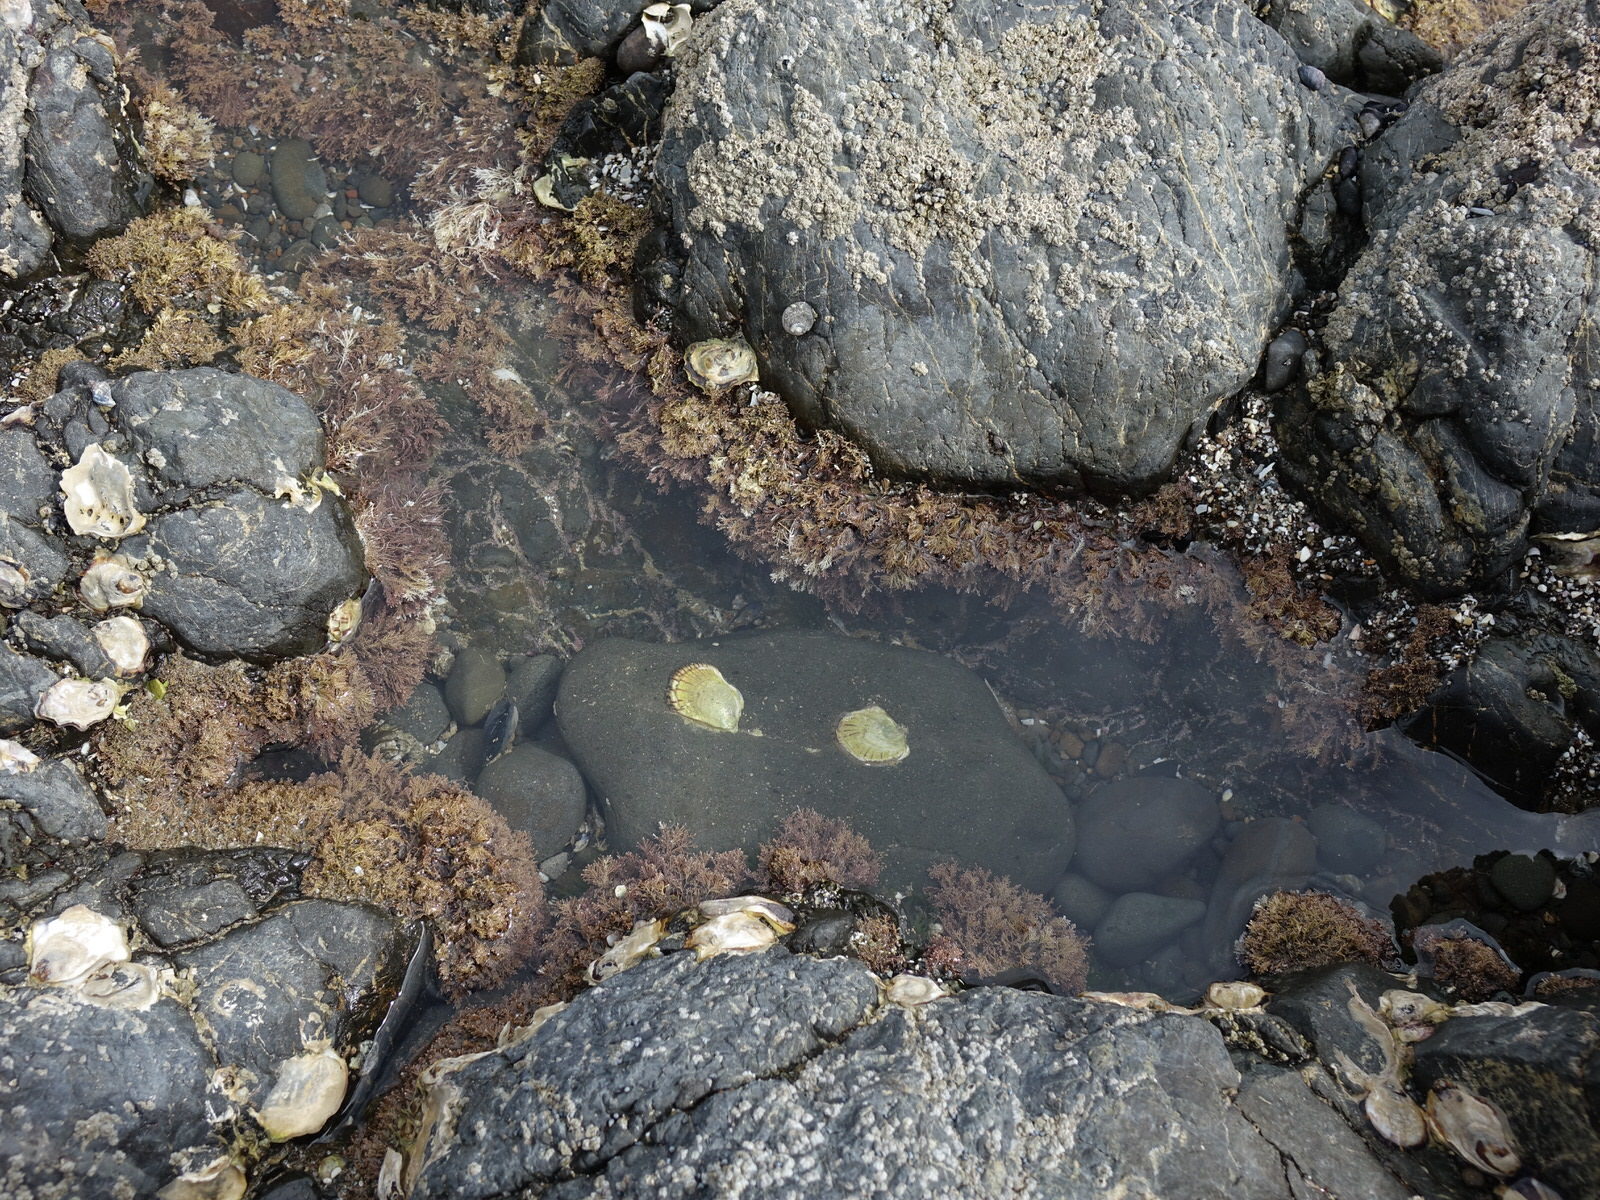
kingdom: Animalia
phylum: Mollusca
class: Bivalvia
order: Ostreida
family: Ostreidae
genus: Saccostrea
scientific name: Saccostrea glomerata
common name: Sydney cupped oyster
